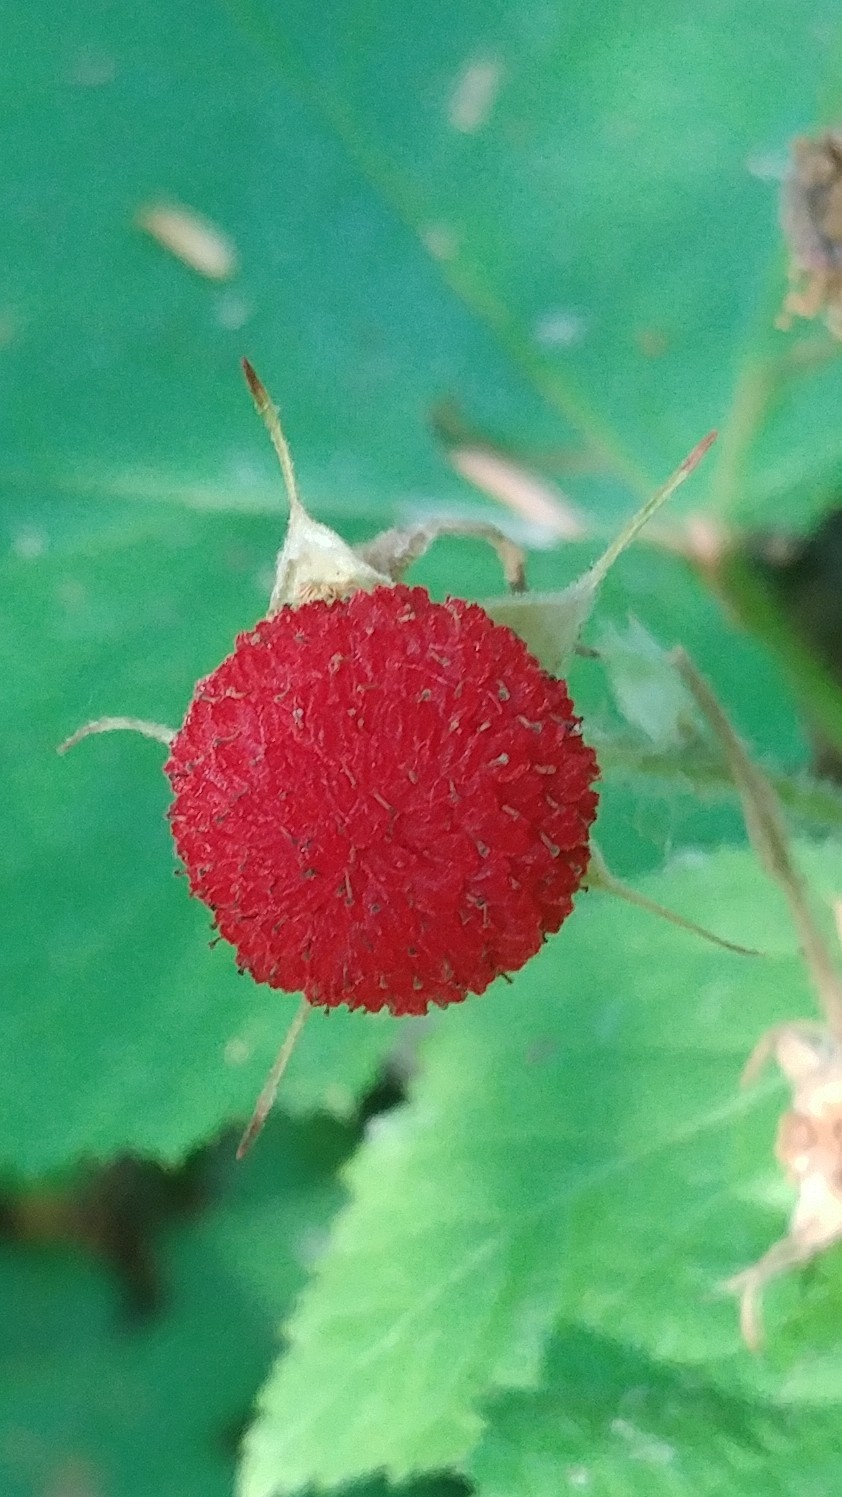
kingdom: Plantae
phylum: Tracheophyta
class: Magnoliopsida
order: Rosales
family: Rosaceae
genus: Rubus
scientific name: Rubus parviflorus
